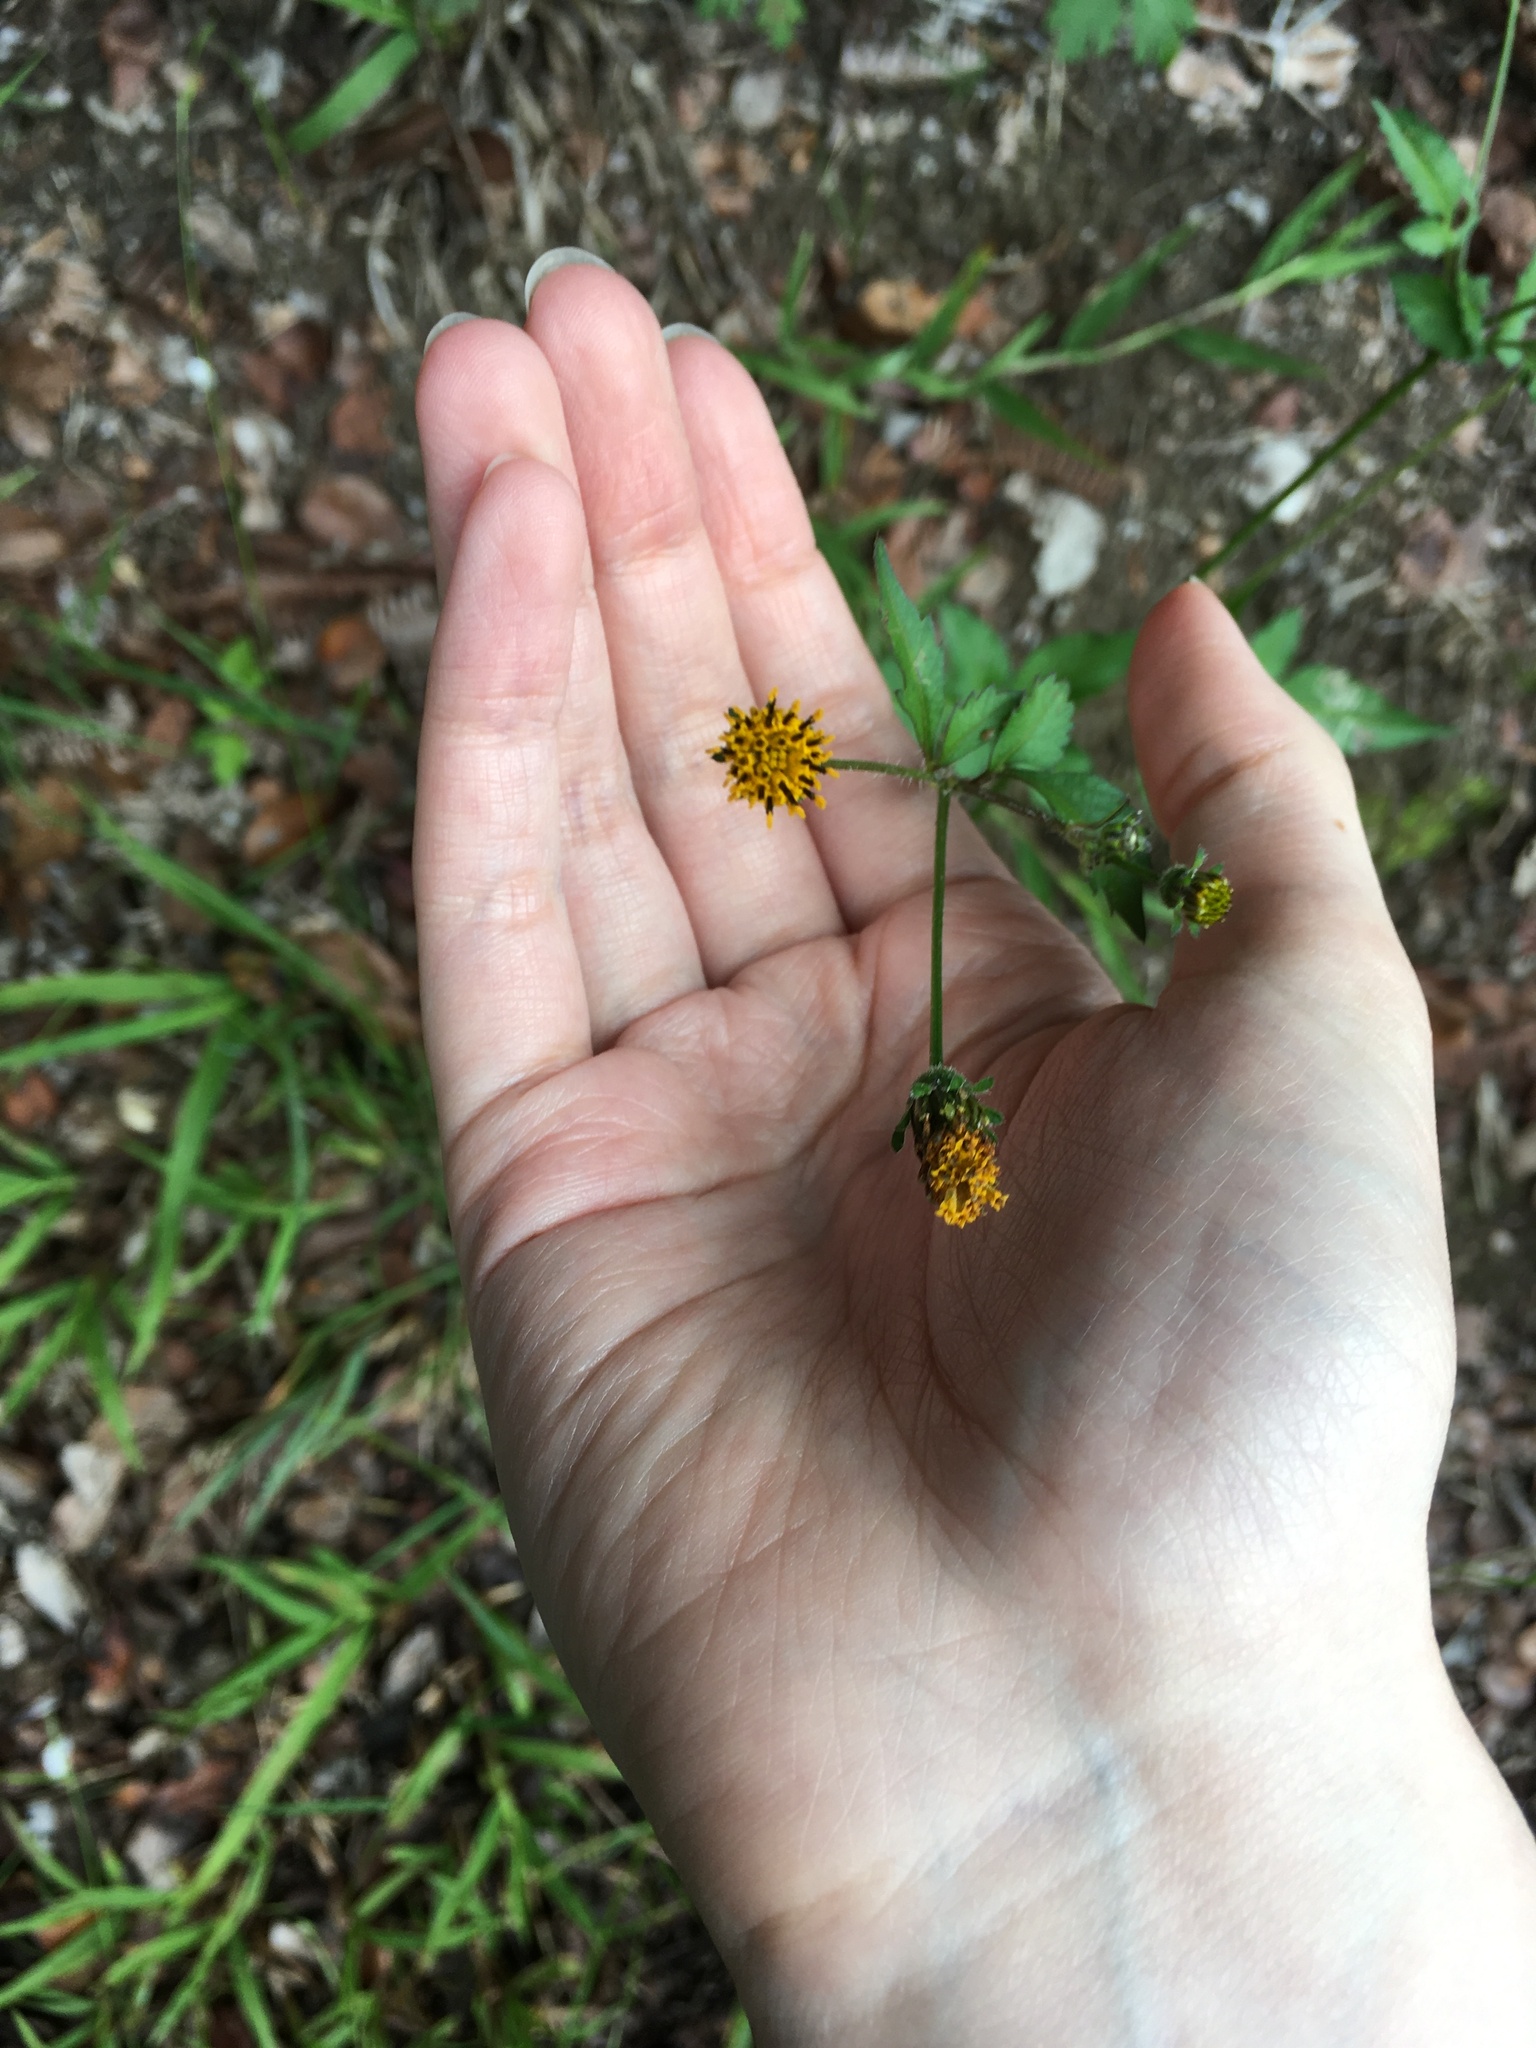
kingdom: Plantae
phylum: Tracheophyta
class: Magnoliopsida
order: Asterales
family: Asteraceae
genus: Bidens
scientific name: Bidens pilosa
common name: Black-jack
